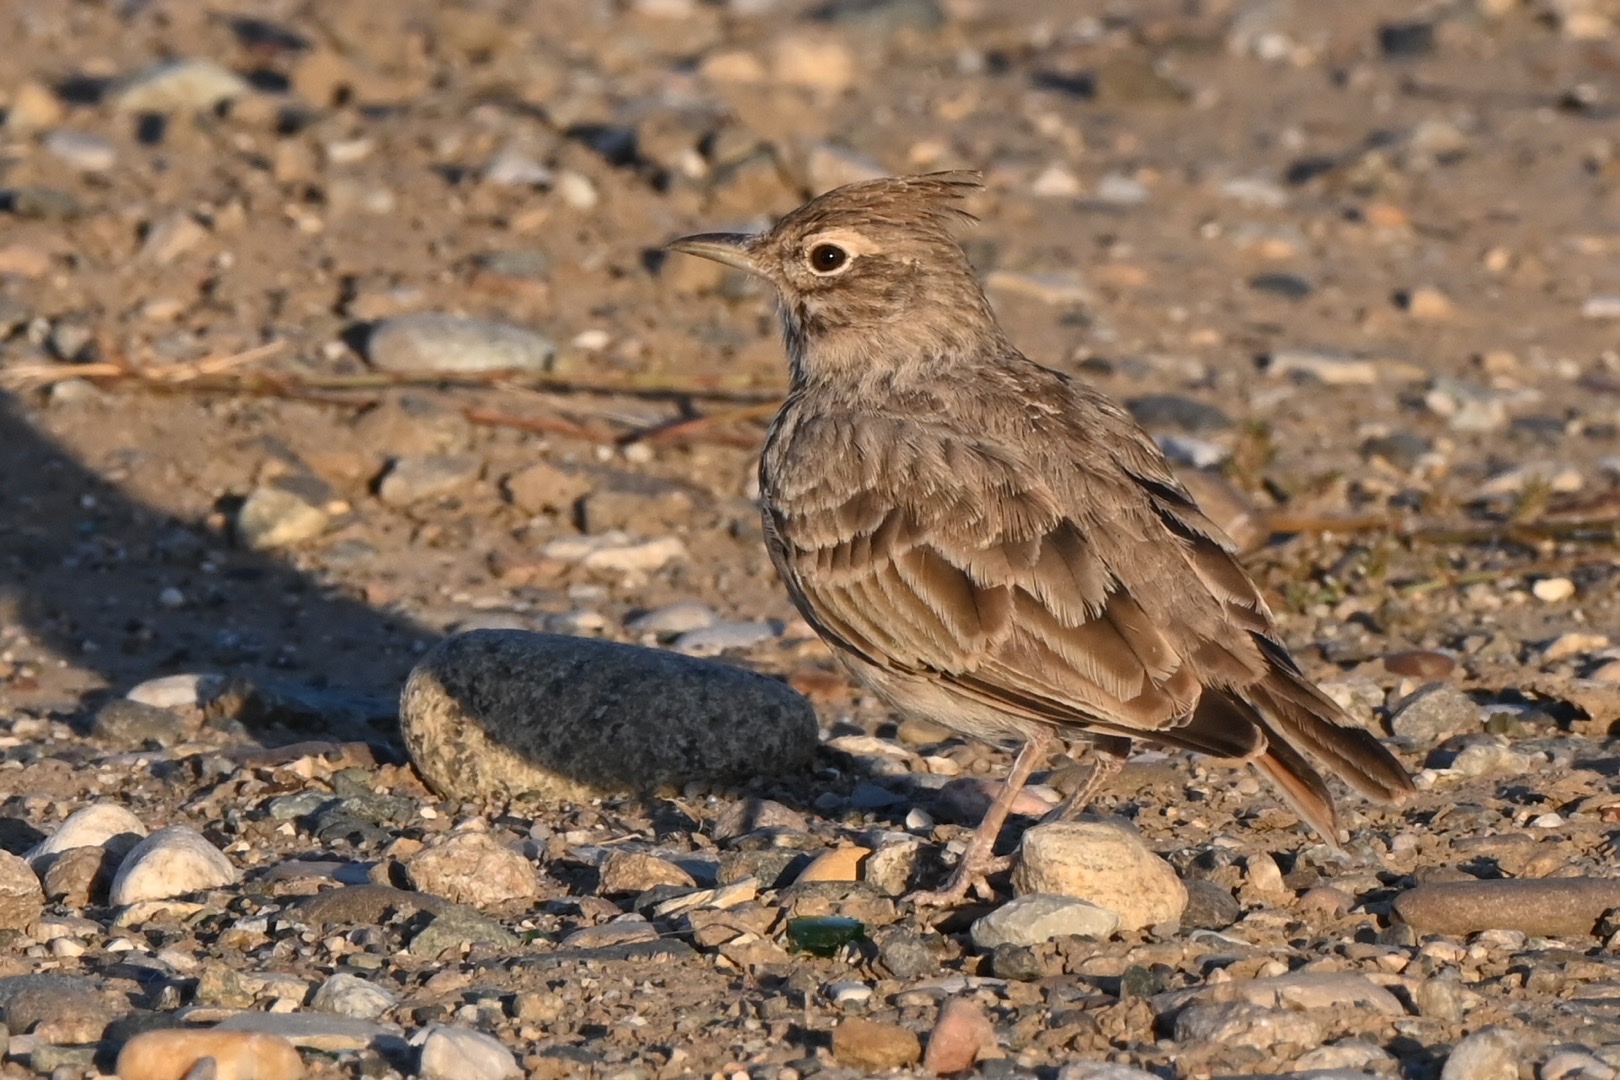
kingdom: Animalia
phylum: Chordata
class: Aves
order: Passeriformes
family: Alaudidae
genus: Galerida
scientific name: Galerida cristata
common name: Crested lark
